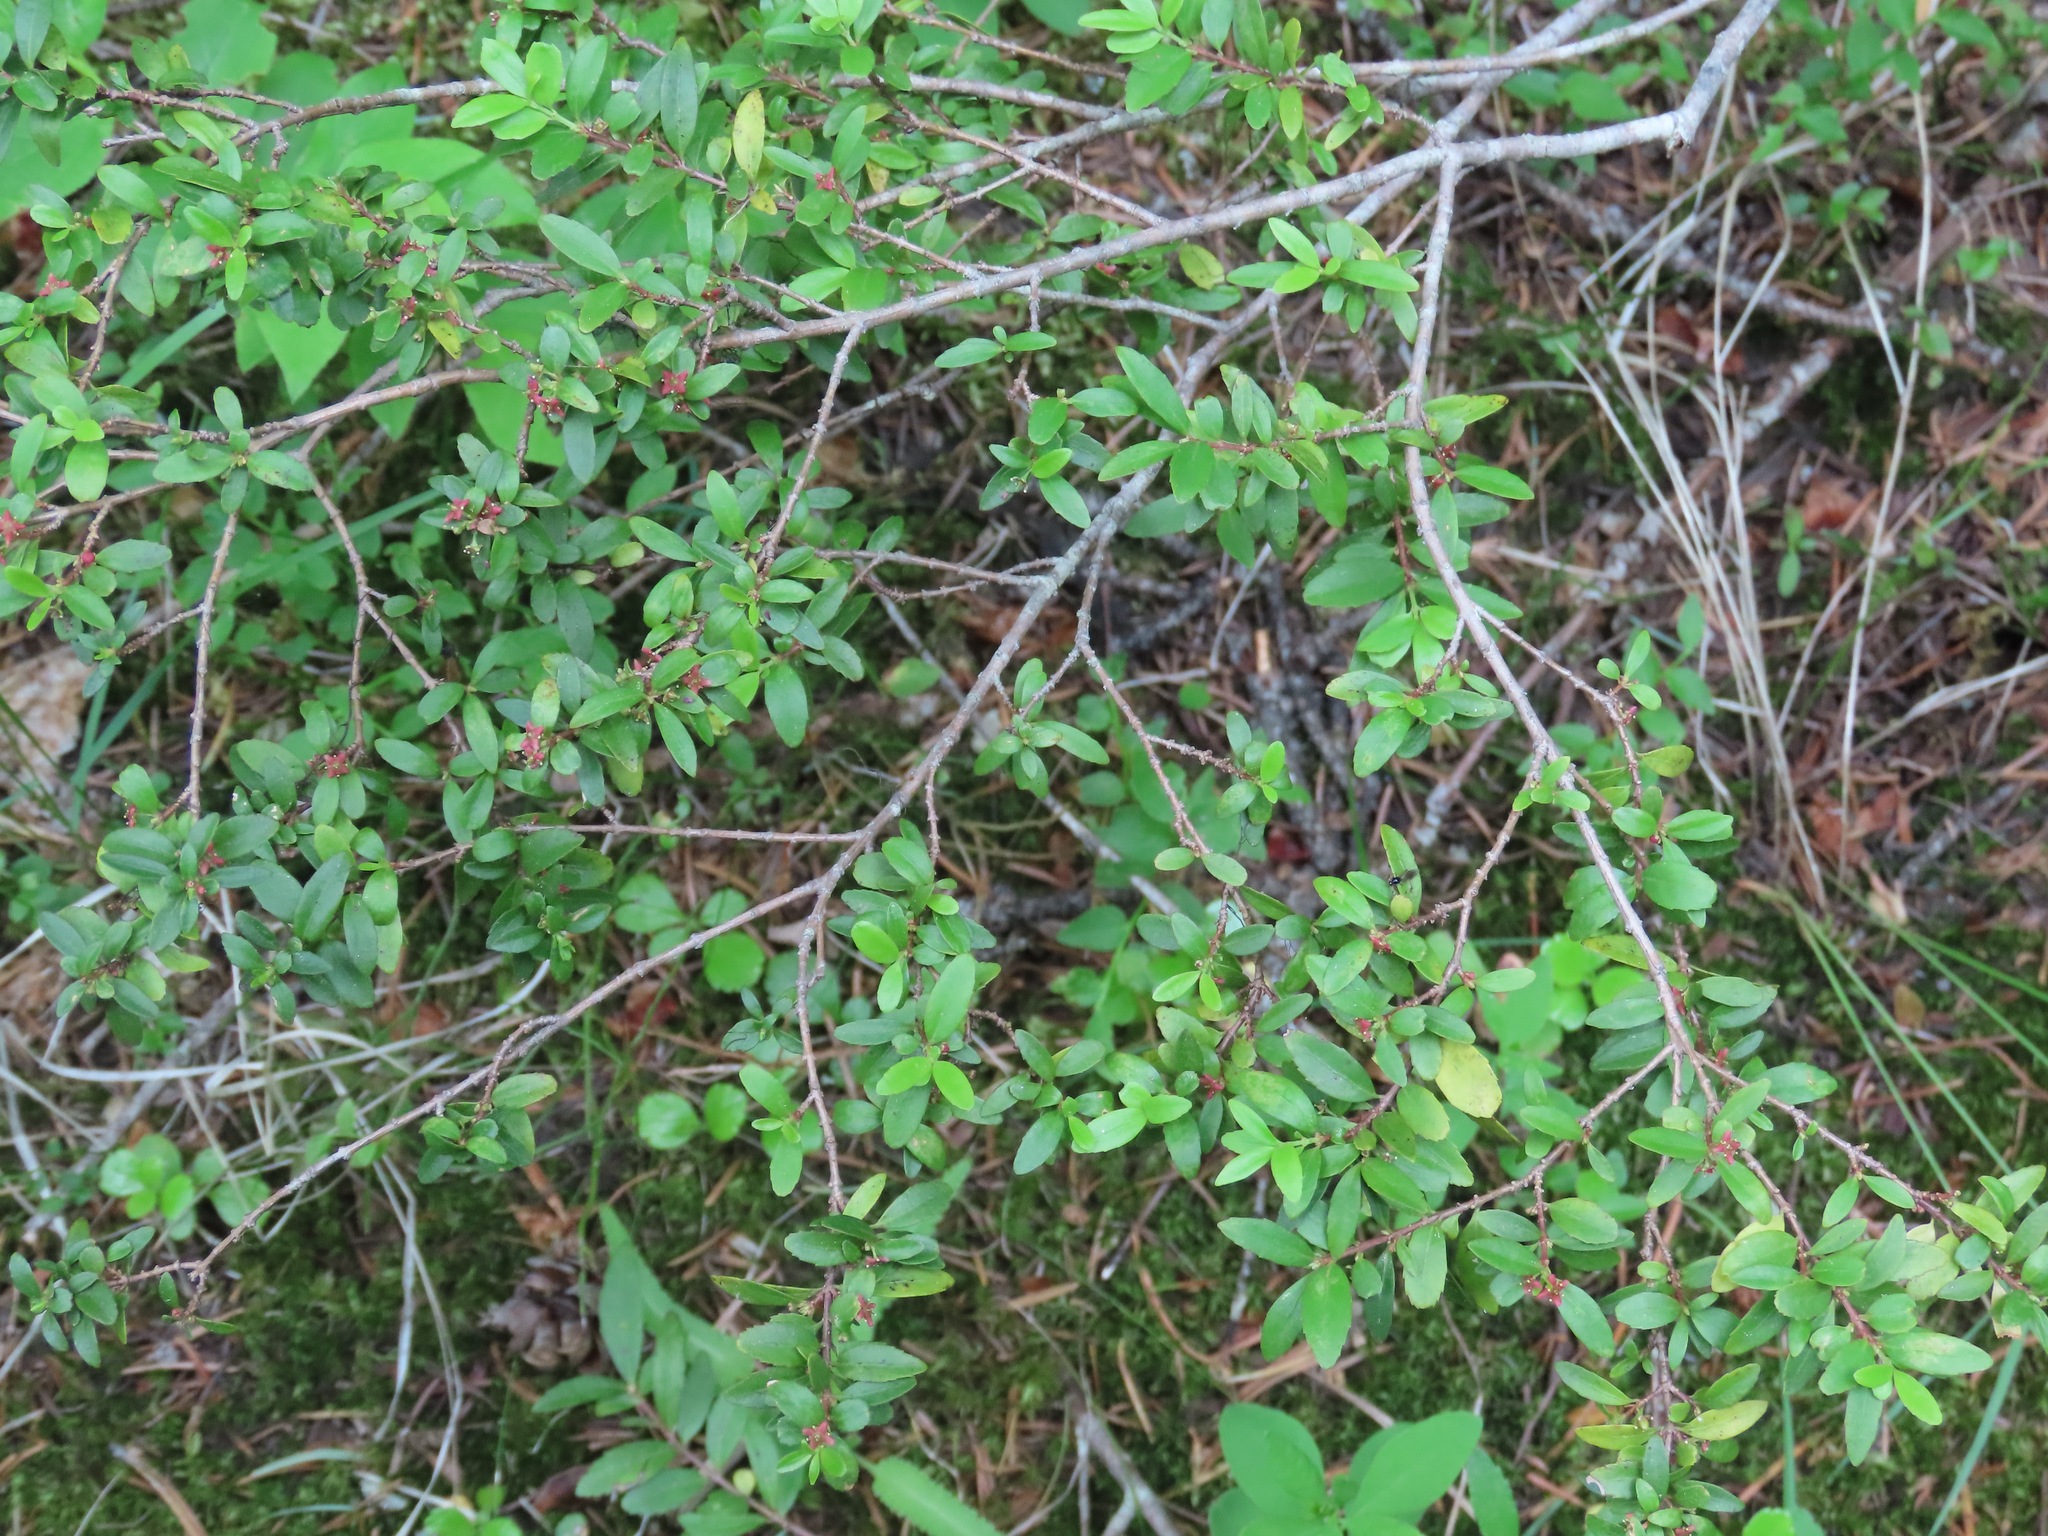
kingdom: Plantae
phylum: Tracheophyta
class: Magnoliopsida
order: Celastrales
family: Celastraceae
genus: Paxistima
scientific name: Paxistima myrsinites
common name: Mountain-lover
